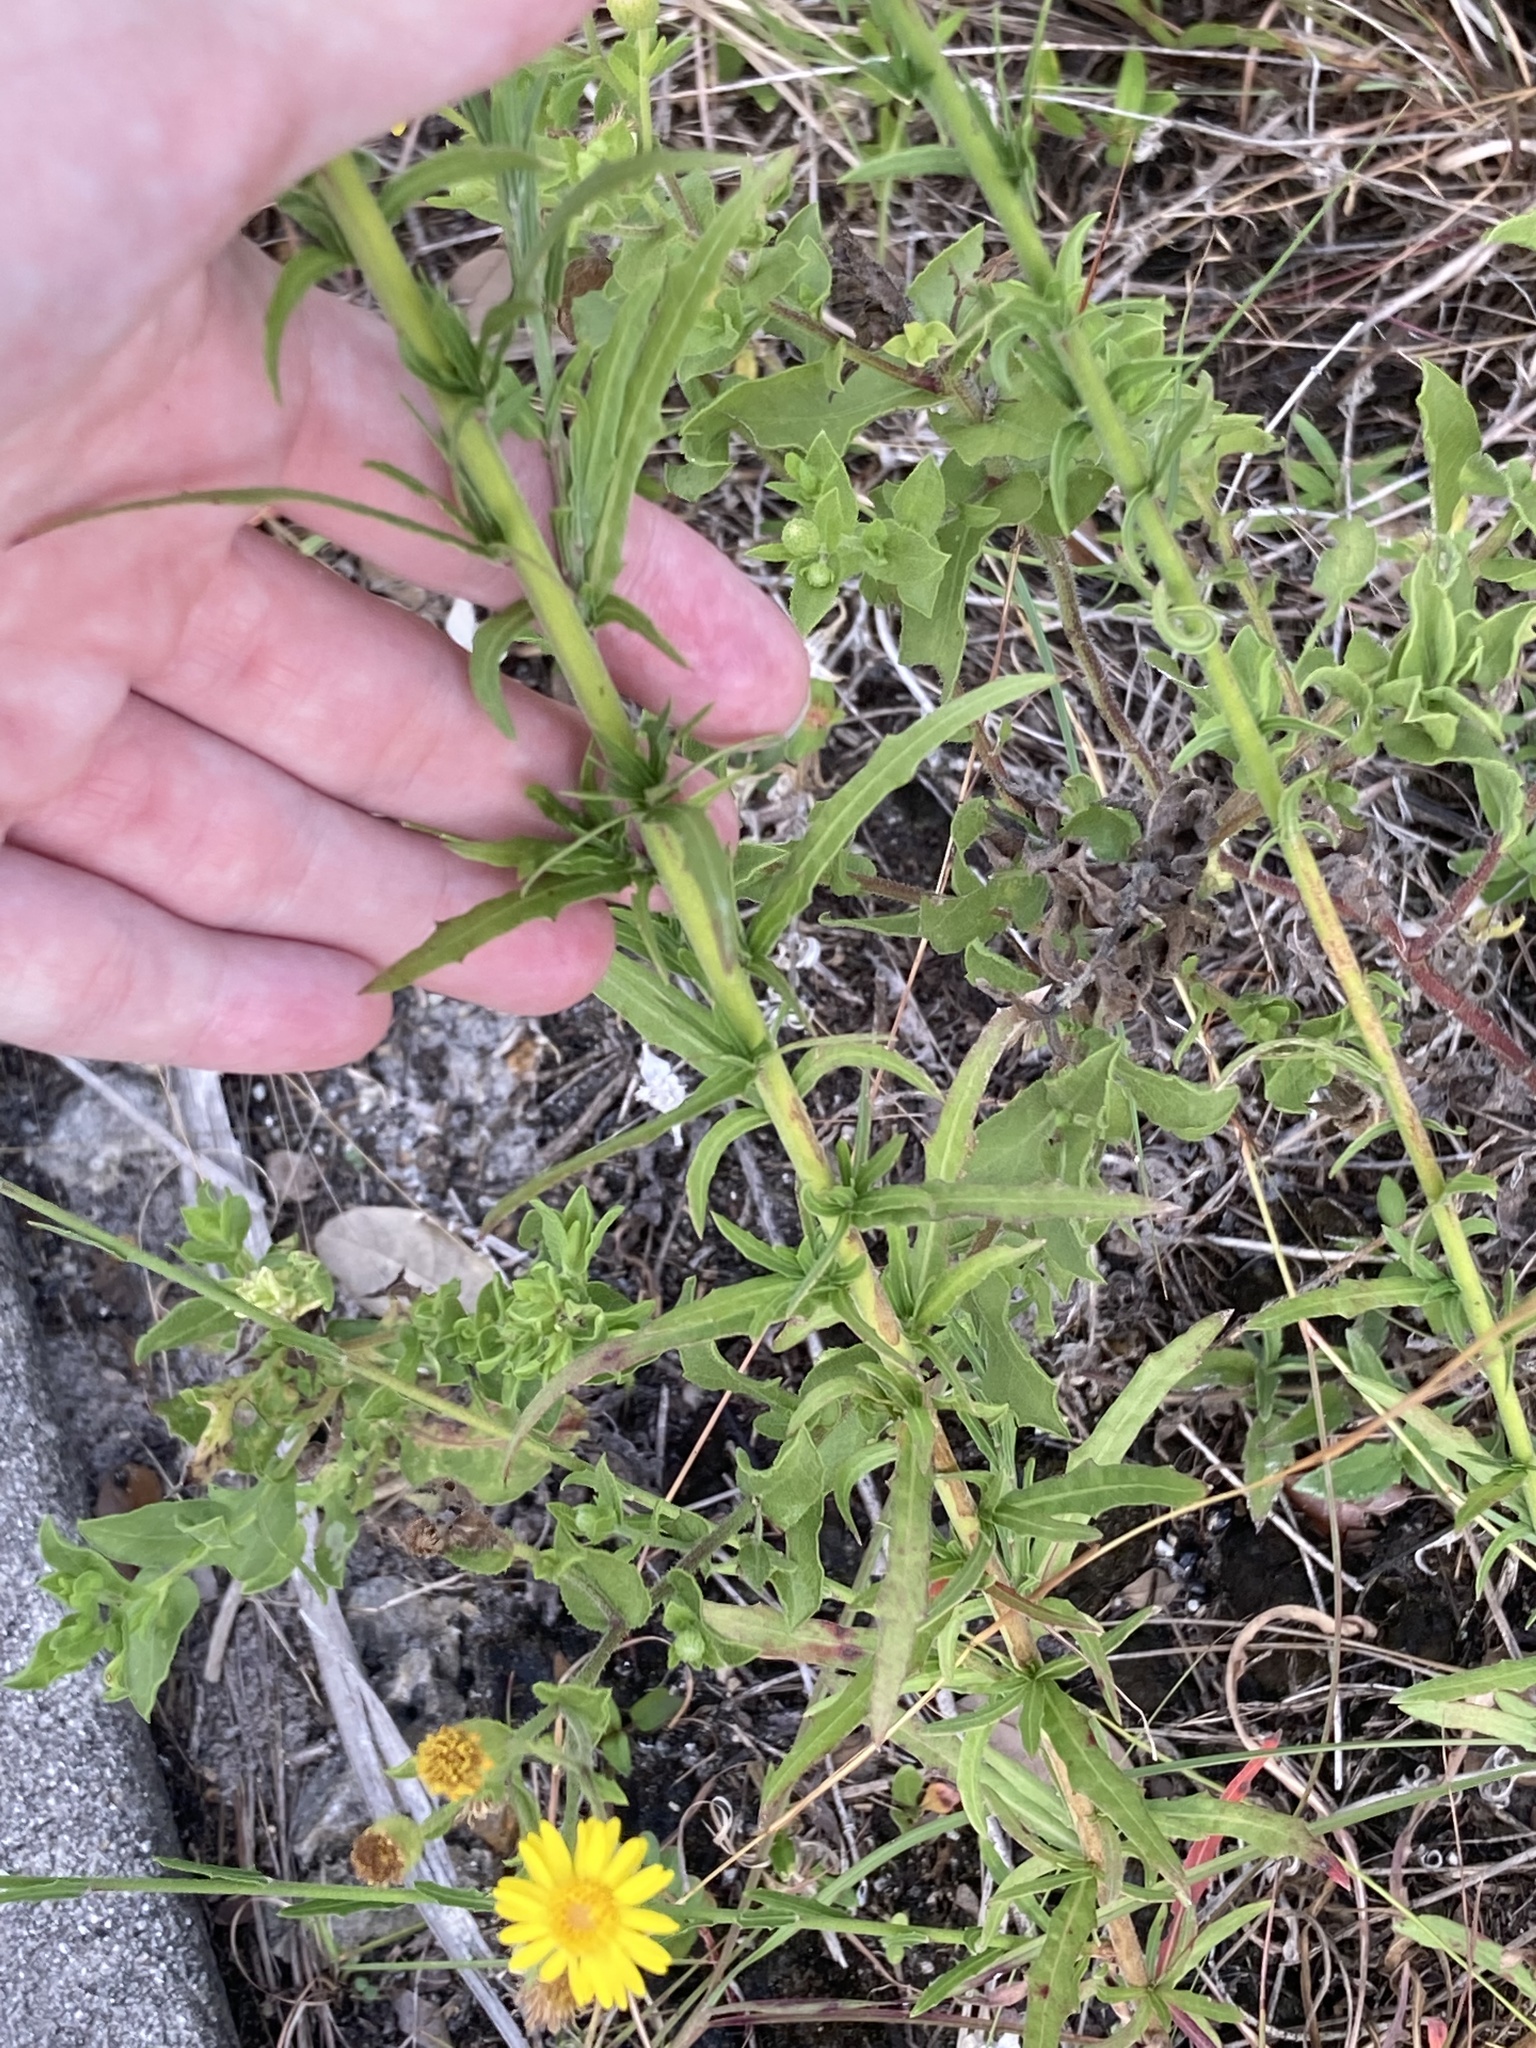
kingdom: Plantae
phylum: Tracheophyta
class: Magnoliopsida
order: Myrtales
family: Onagraceae
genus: Oenothera
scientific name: Oenothera simulans
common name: Southern beeblossom
